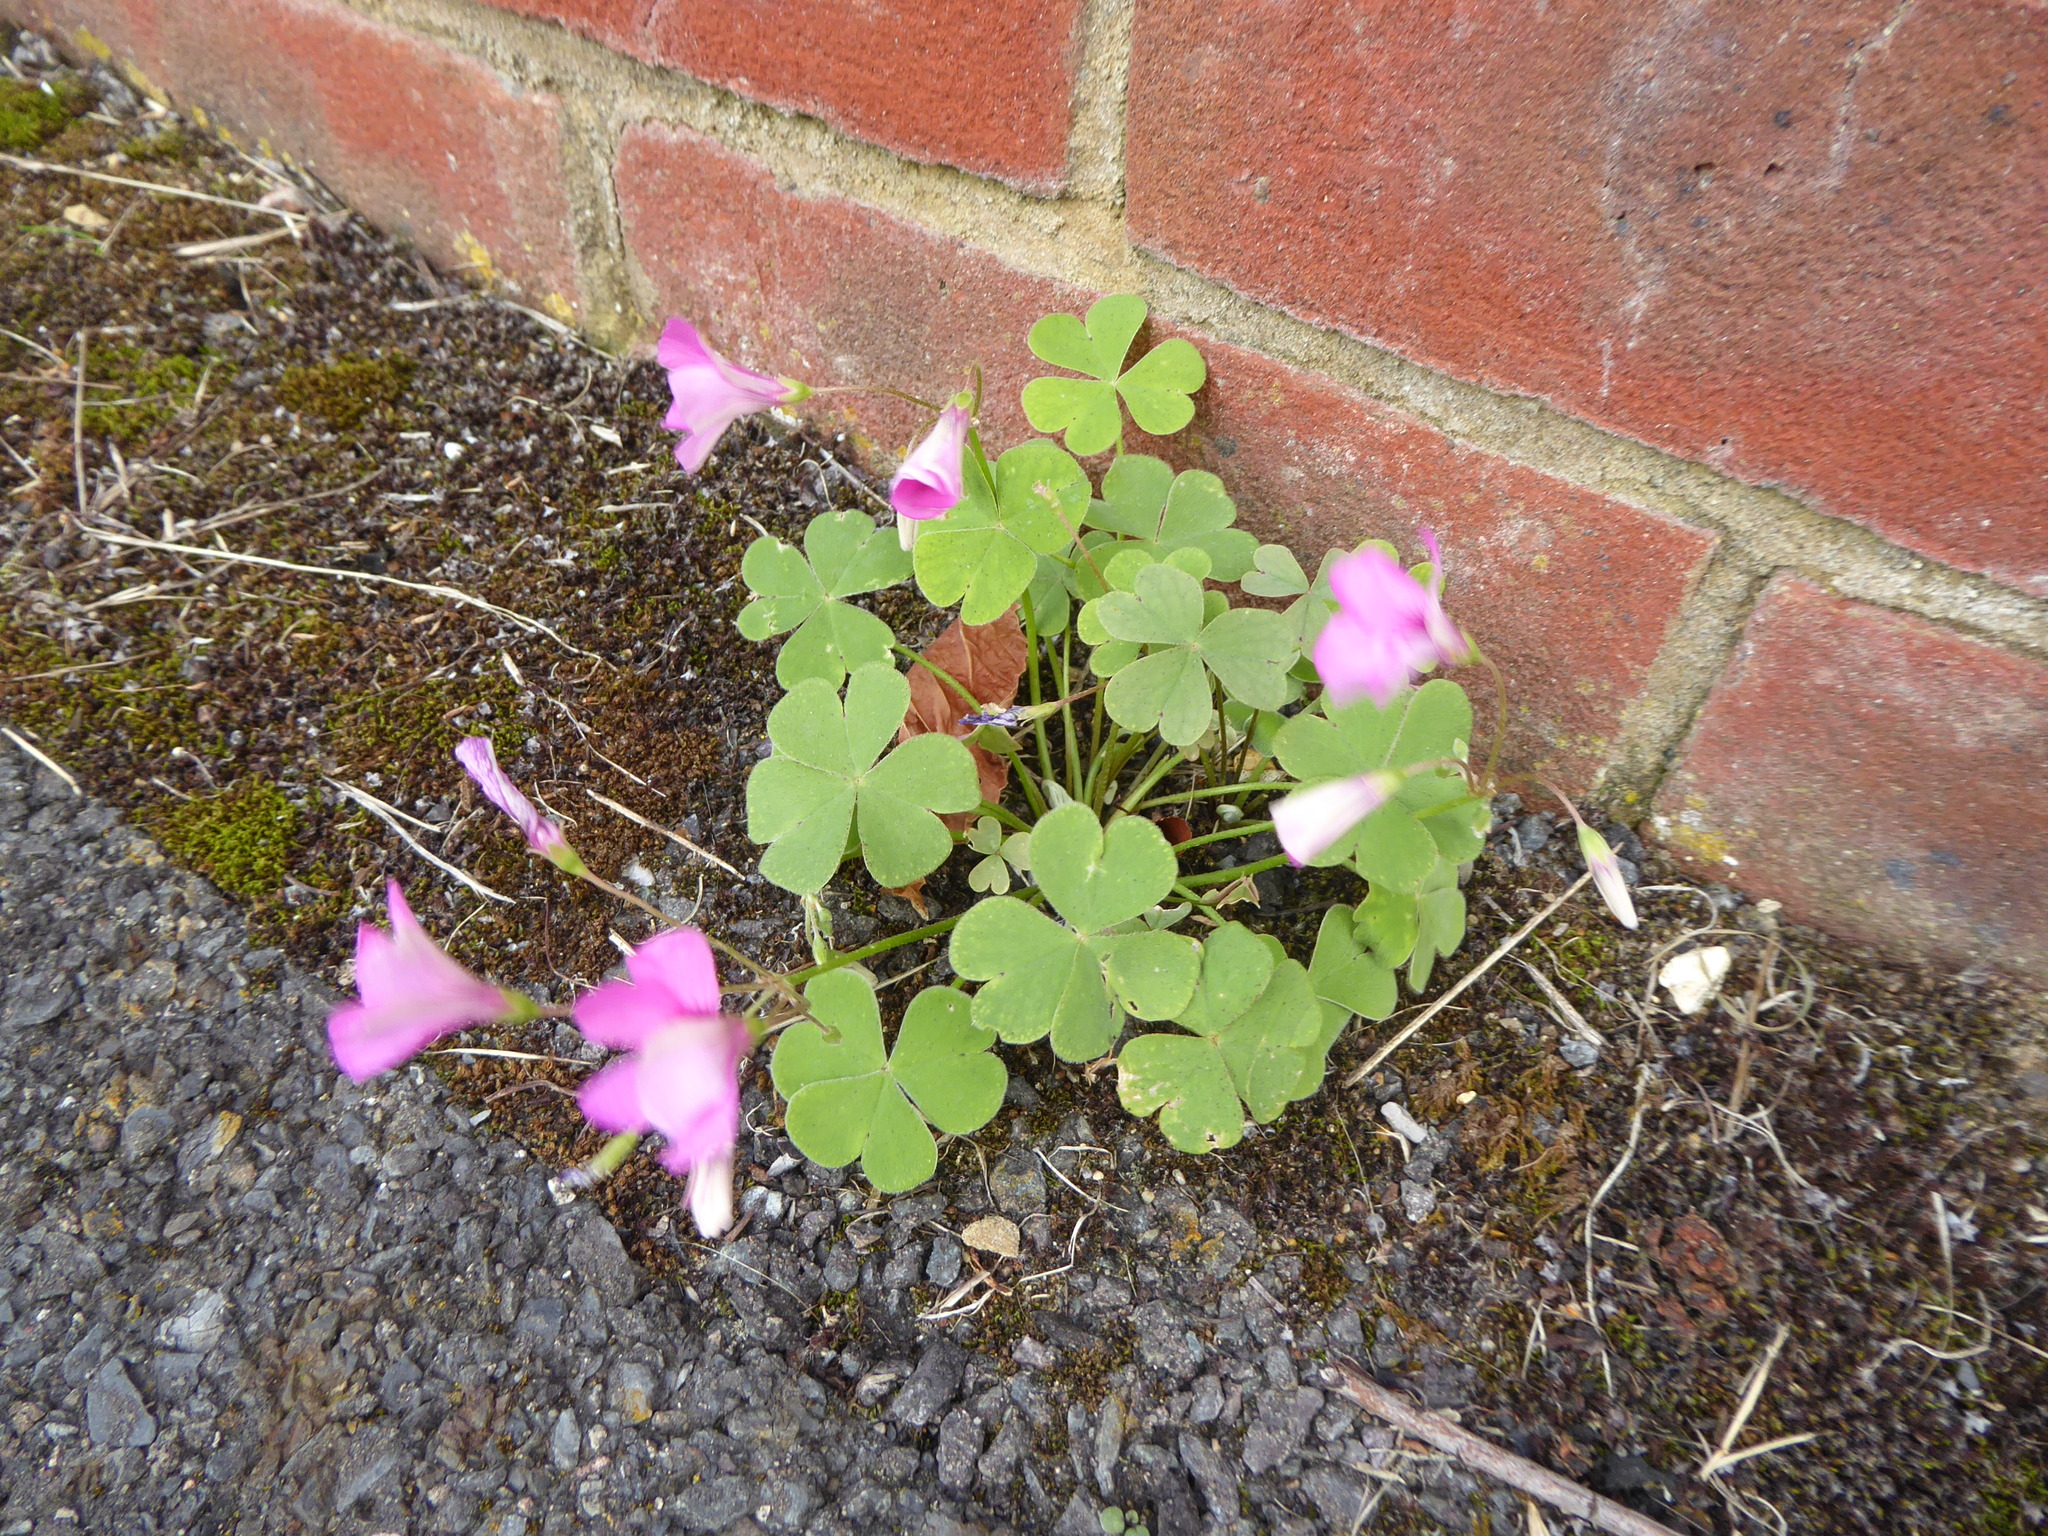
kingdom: Plantae
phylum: Tracheophyta
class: Magnoliopsida
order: Oxalidales
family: Oxalidaceae
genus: Oxalis
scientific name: Oxalis articulata
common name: Pink-sorrel
